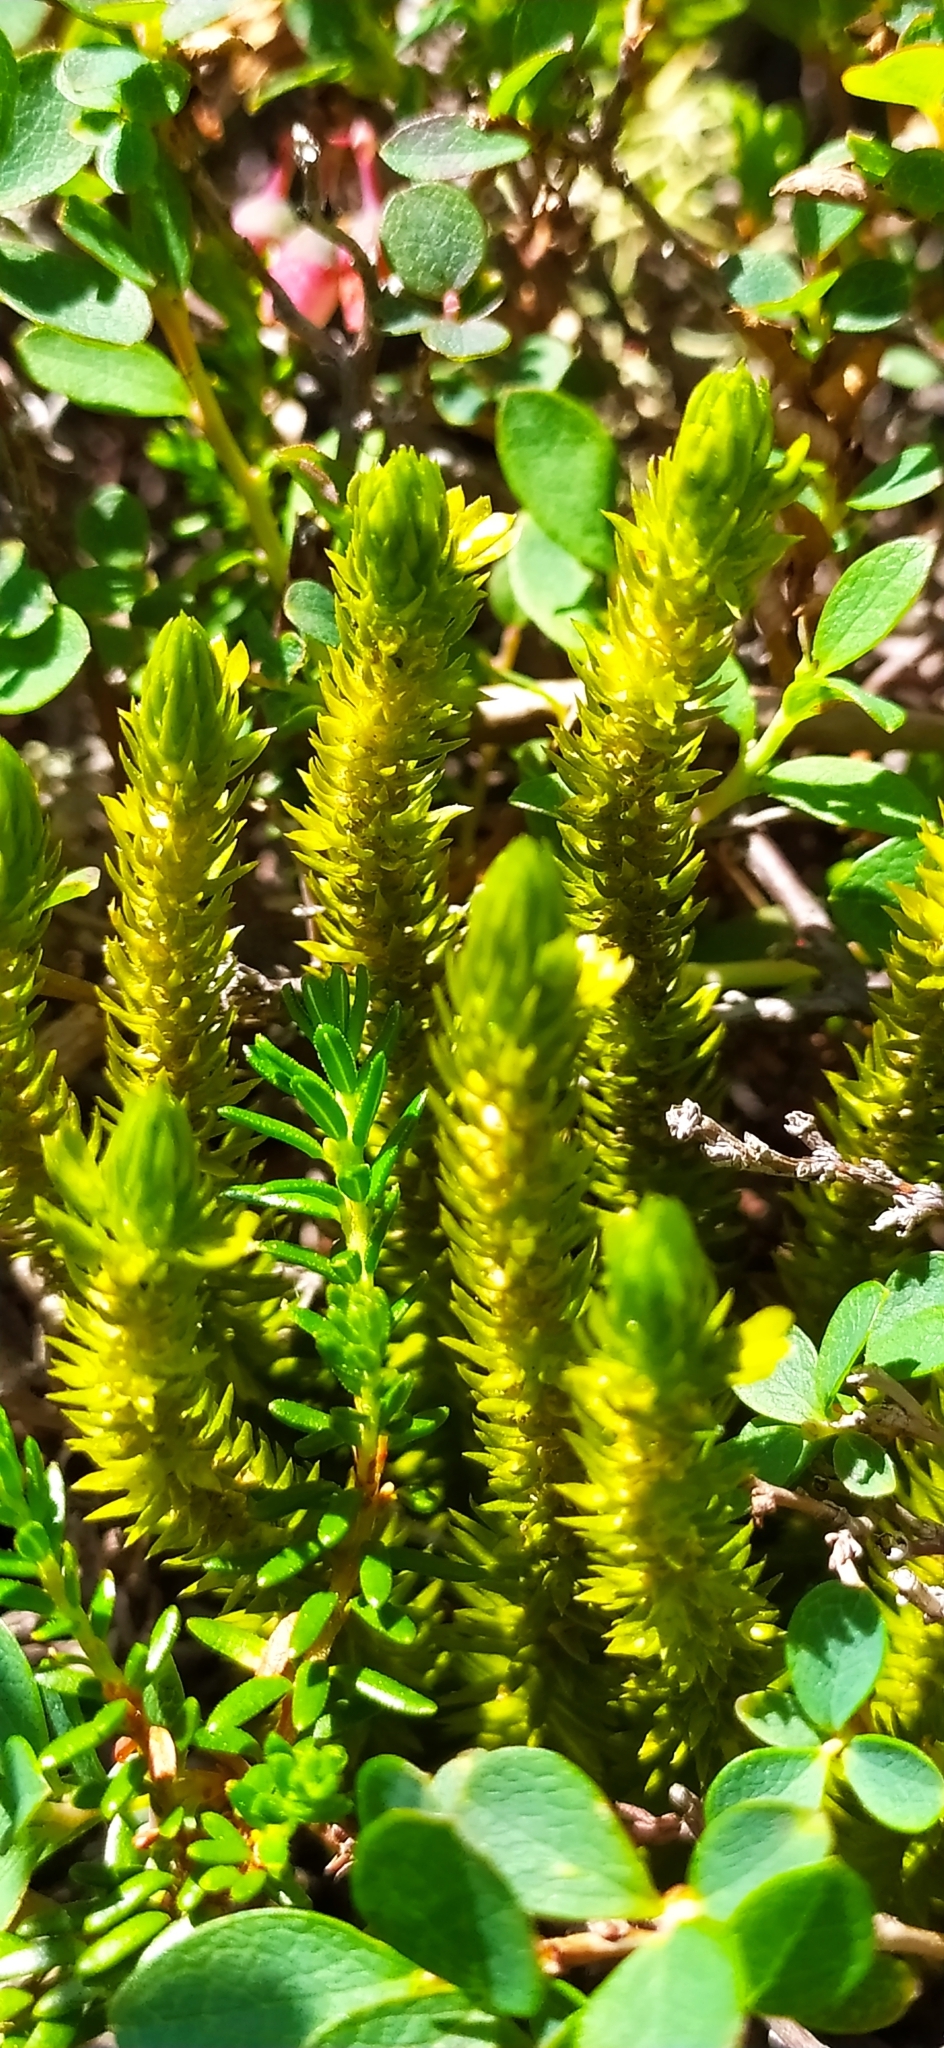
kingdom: Plantae
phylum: Tracheophyta
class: Lycopodiopsida
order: Lycopodiales
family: Lycopodiaceae
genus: Huperzia
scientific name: Huperzia selago
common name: Northern firmoss
